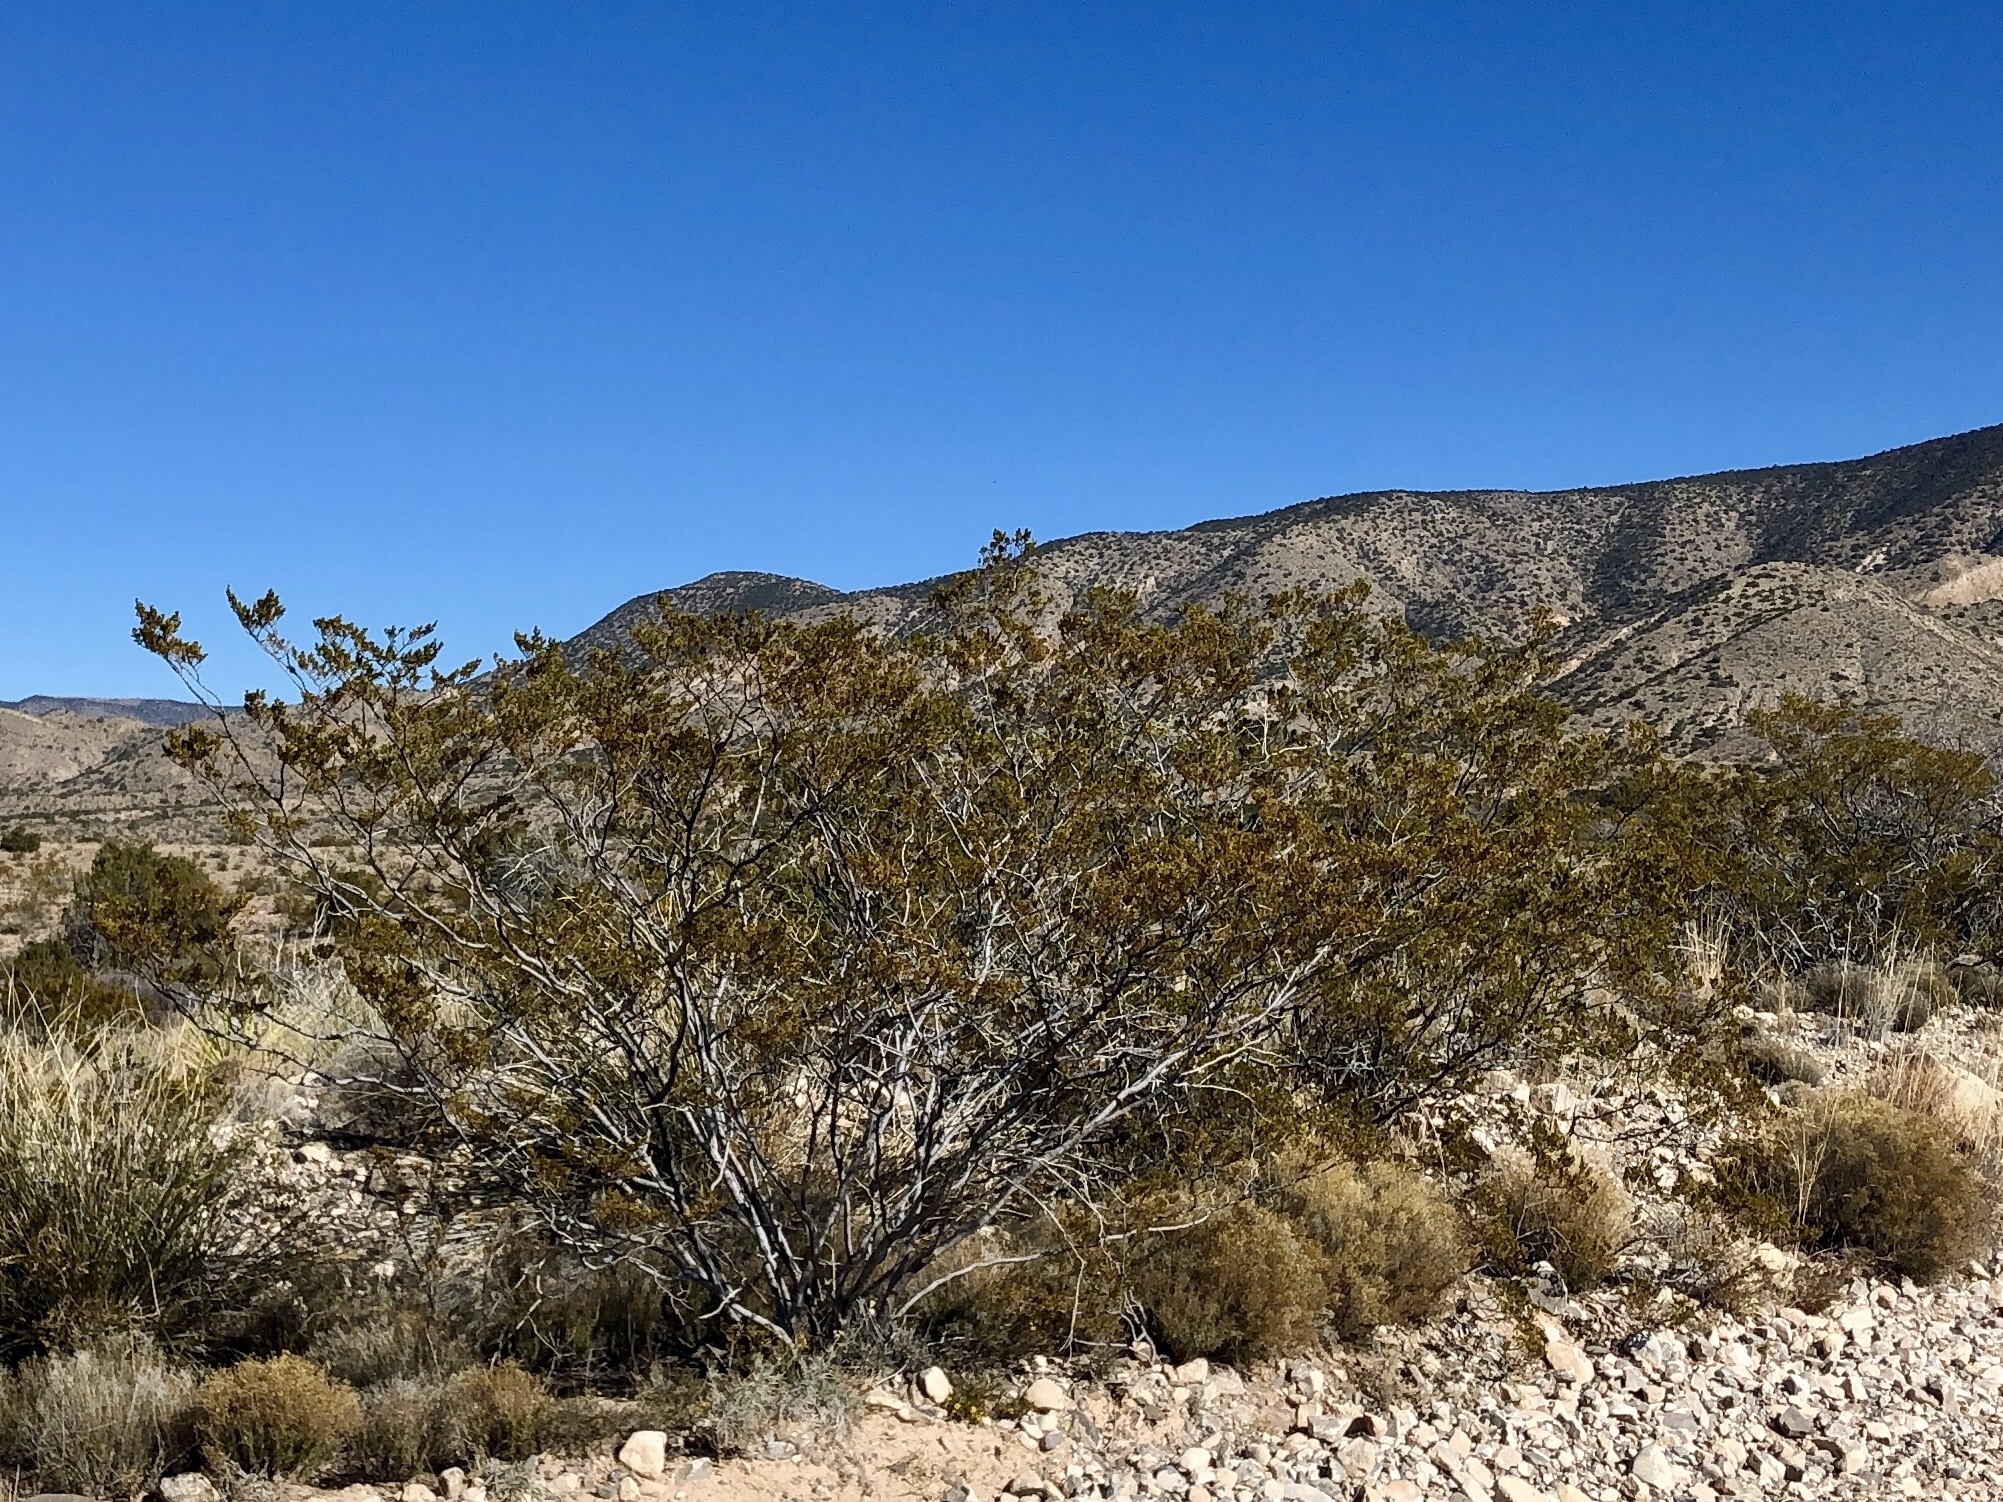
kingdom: Plantae
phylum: Tracheophyta
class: Magnoliopsida
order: Zygophyllales
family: Zygophyllaceae
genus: Larrea
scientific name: Larrea tridentata
